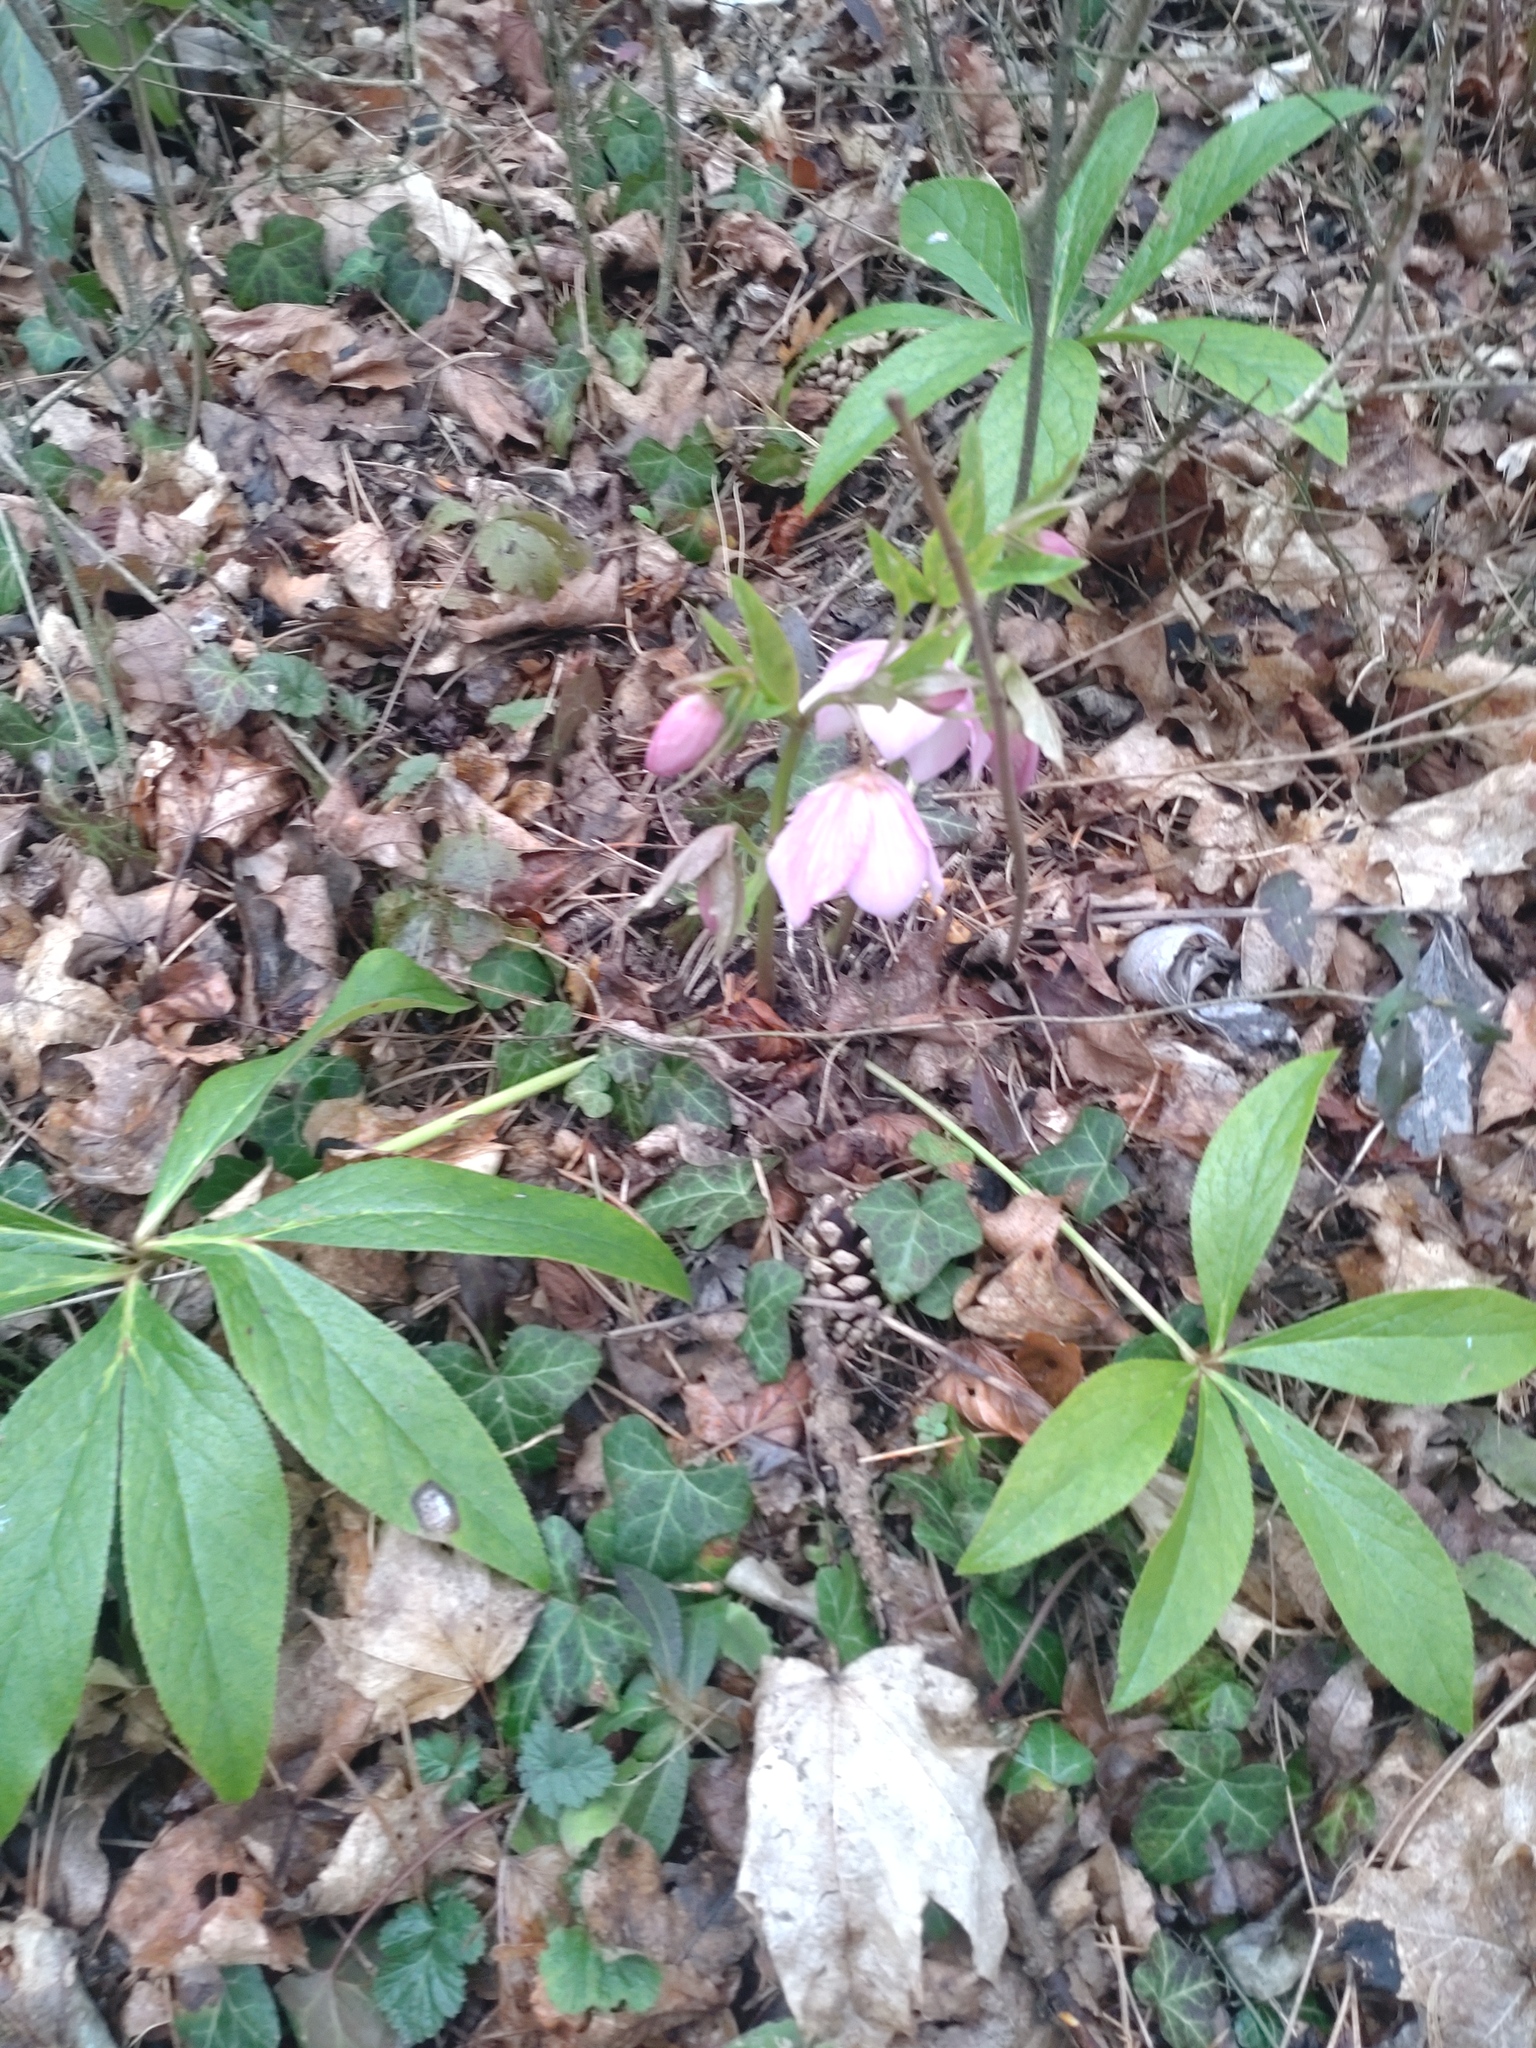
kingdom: Plantae
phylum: Tracheophyta
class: Magnoliopsida
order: Ranunculales
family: Ranunculaceae
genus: Helleborus
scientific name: Helleborus hybridus
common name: Hybrid lenten-rose
